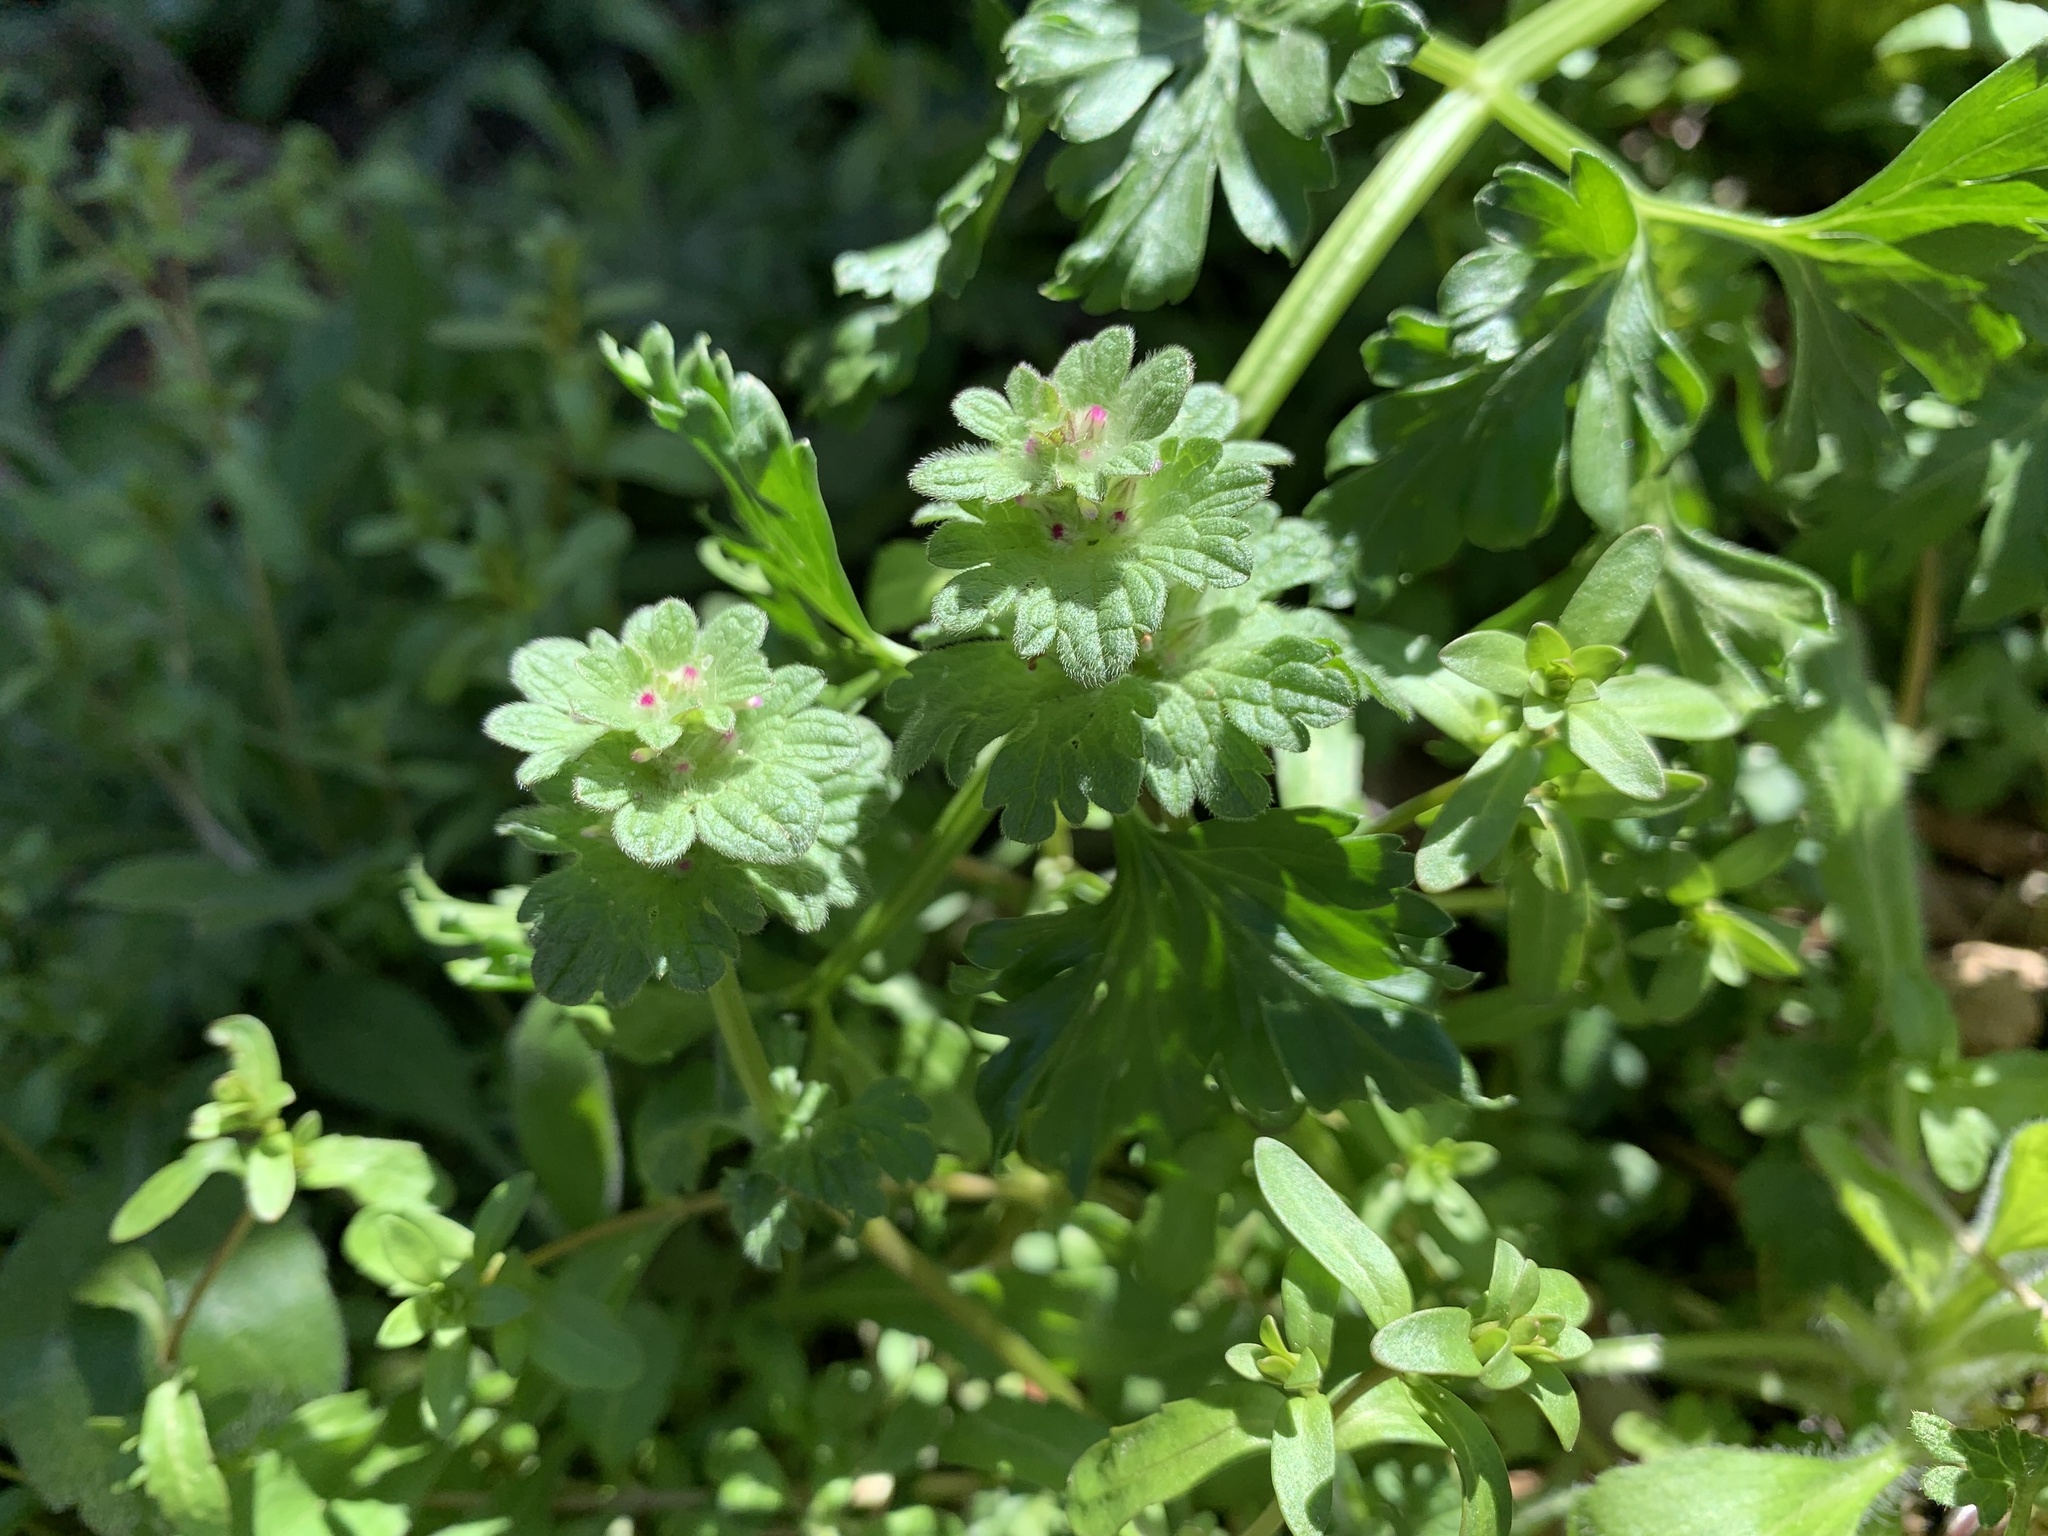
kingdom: Plantae
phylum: Tracheophyta
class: Magnoliopsida
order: Lamiales
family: Lamiaceae
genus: Lamium
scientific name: Lamium amplexicaule
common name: Henbit dead-nettle
